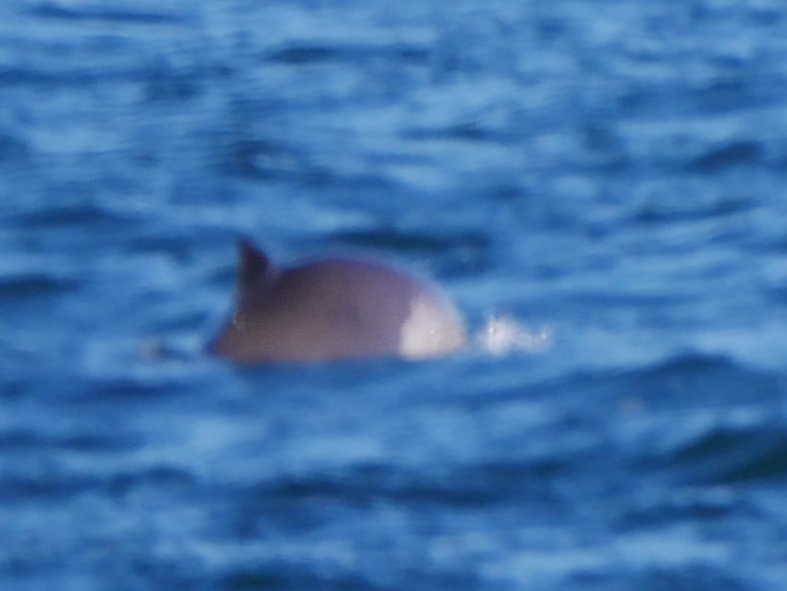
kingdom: Animalia
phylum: Chordata
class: Mammalia
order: Cetacea
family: Phocoenidae
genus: Phocoena
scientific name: Phocoena phocoena
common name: Harbor porpoise
